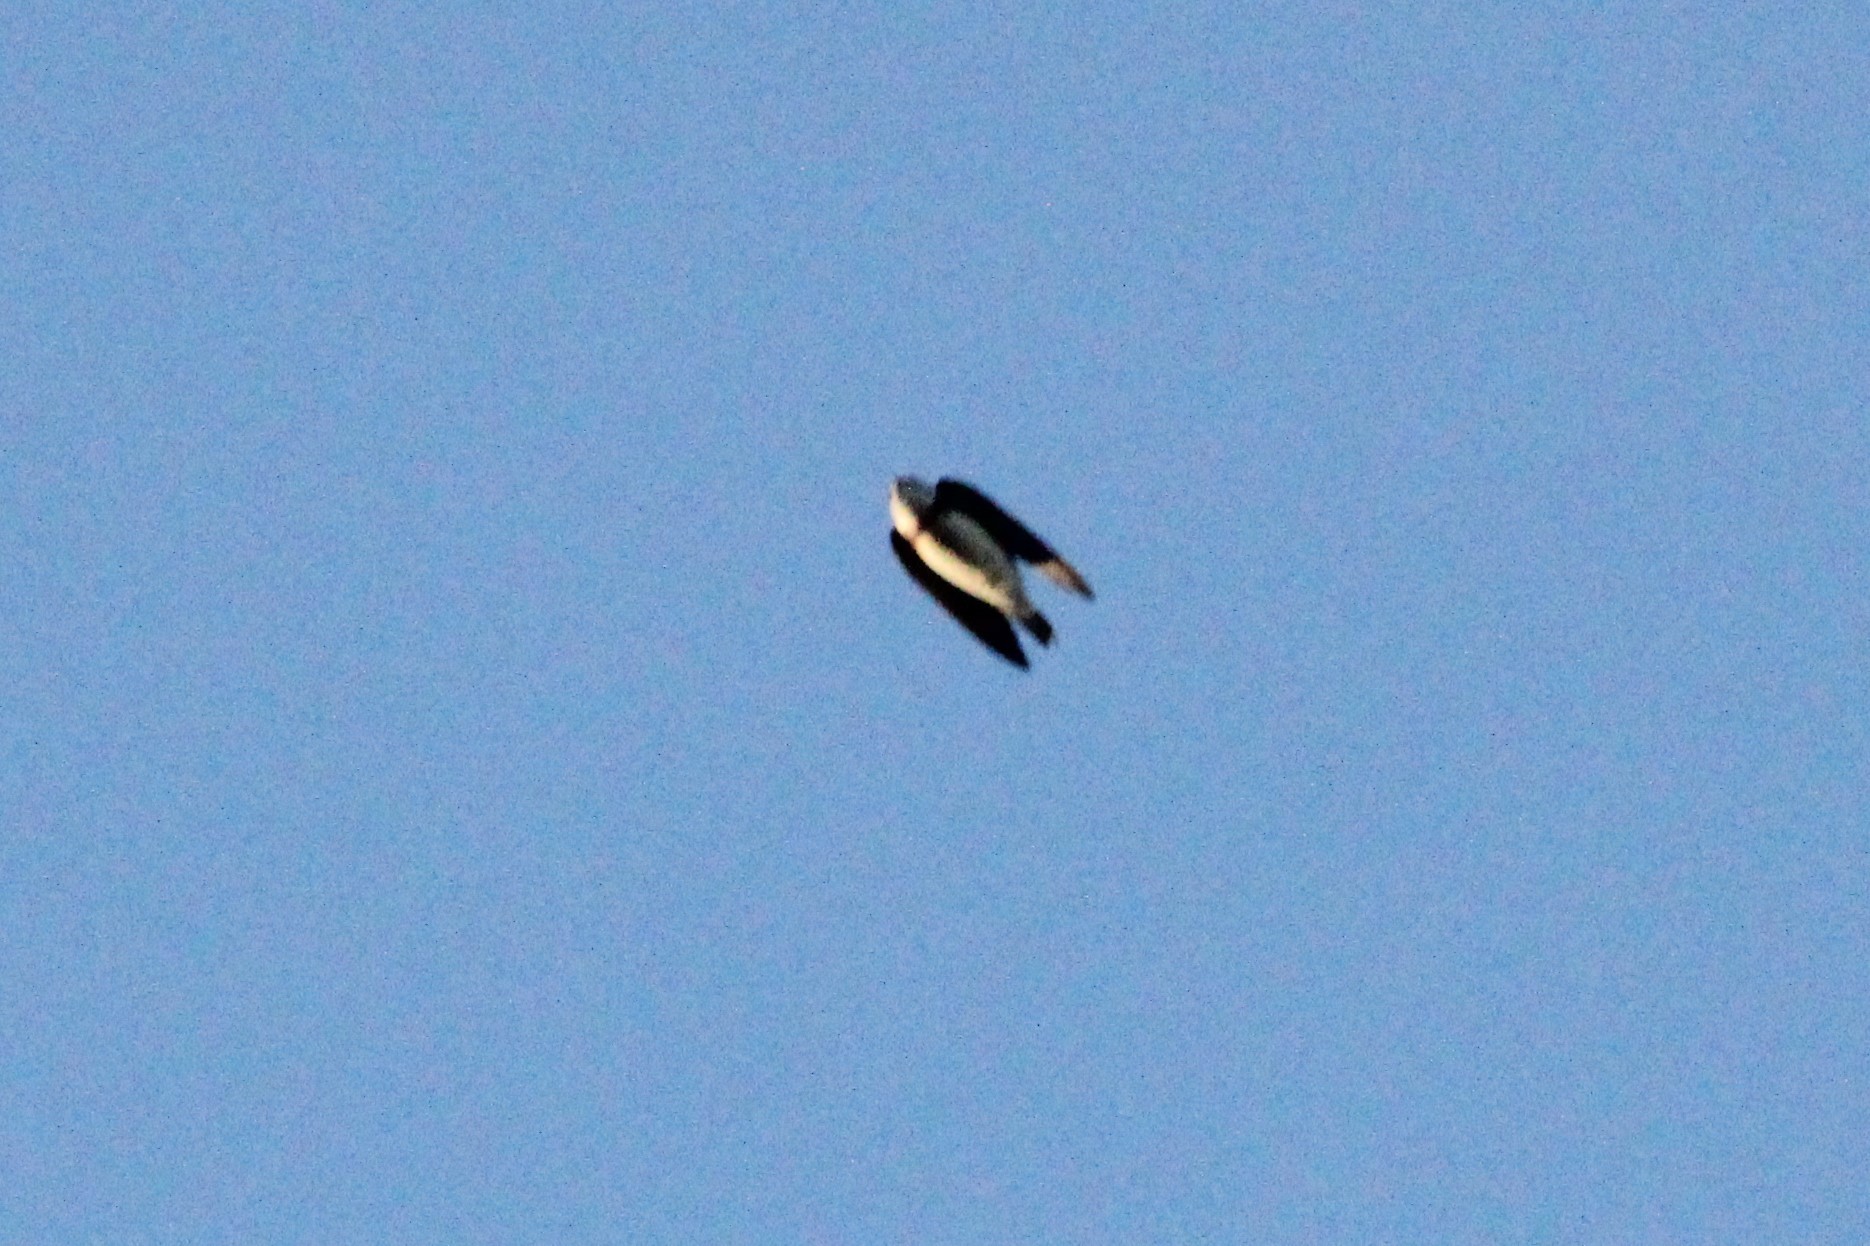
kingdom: Animalia
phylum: Chordata
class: Aves
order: Passeriformes
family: Hirundinidae
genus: Riparia
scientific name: Riparia riparia
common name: Sand martin
